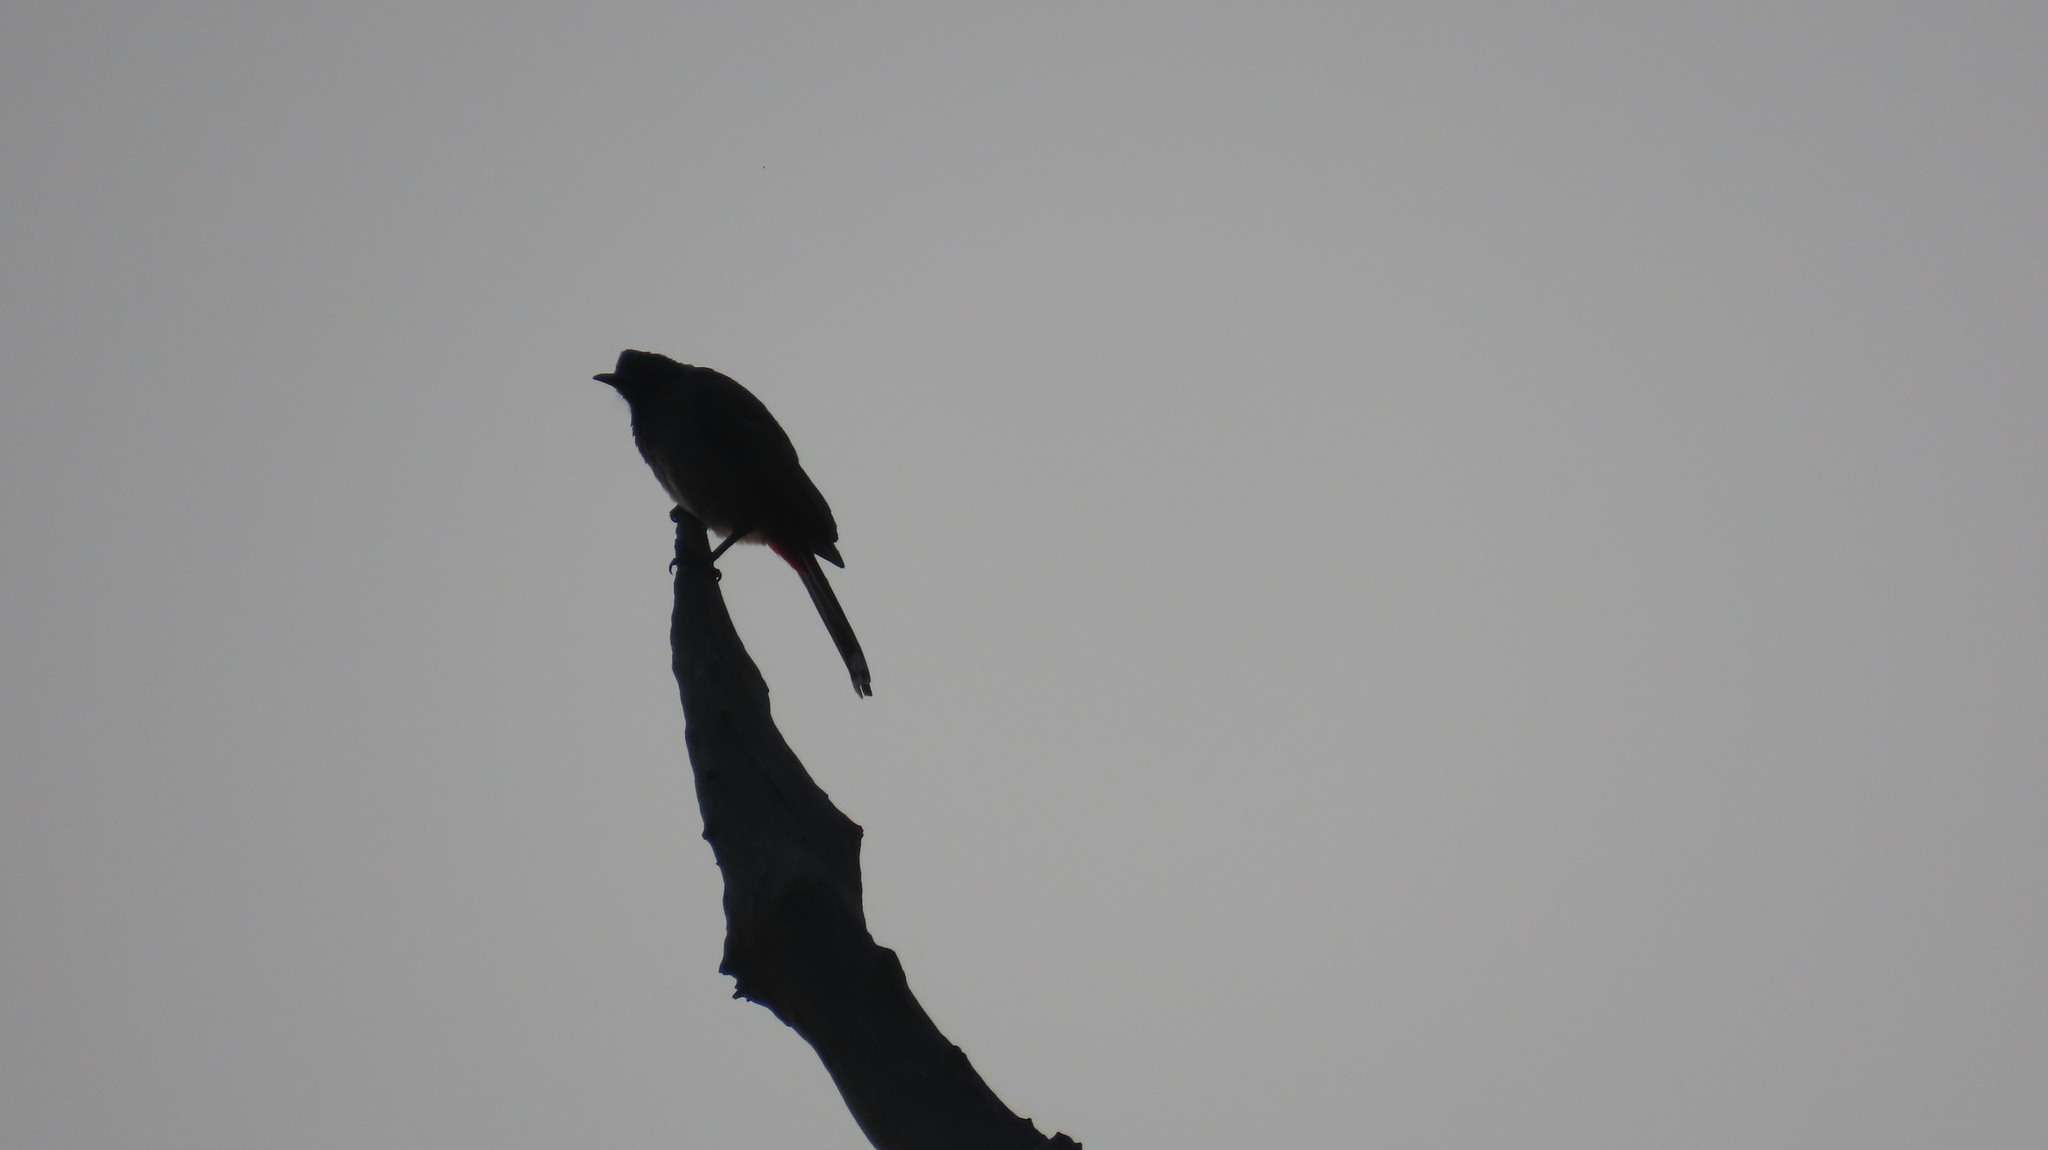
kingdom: Animalia
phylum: Chordata
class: Aves
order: Passeriformes
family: Pycnonotidae
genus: Pycnonotus
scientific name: Pycnonotus cafer
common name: Red-vented bulbul
